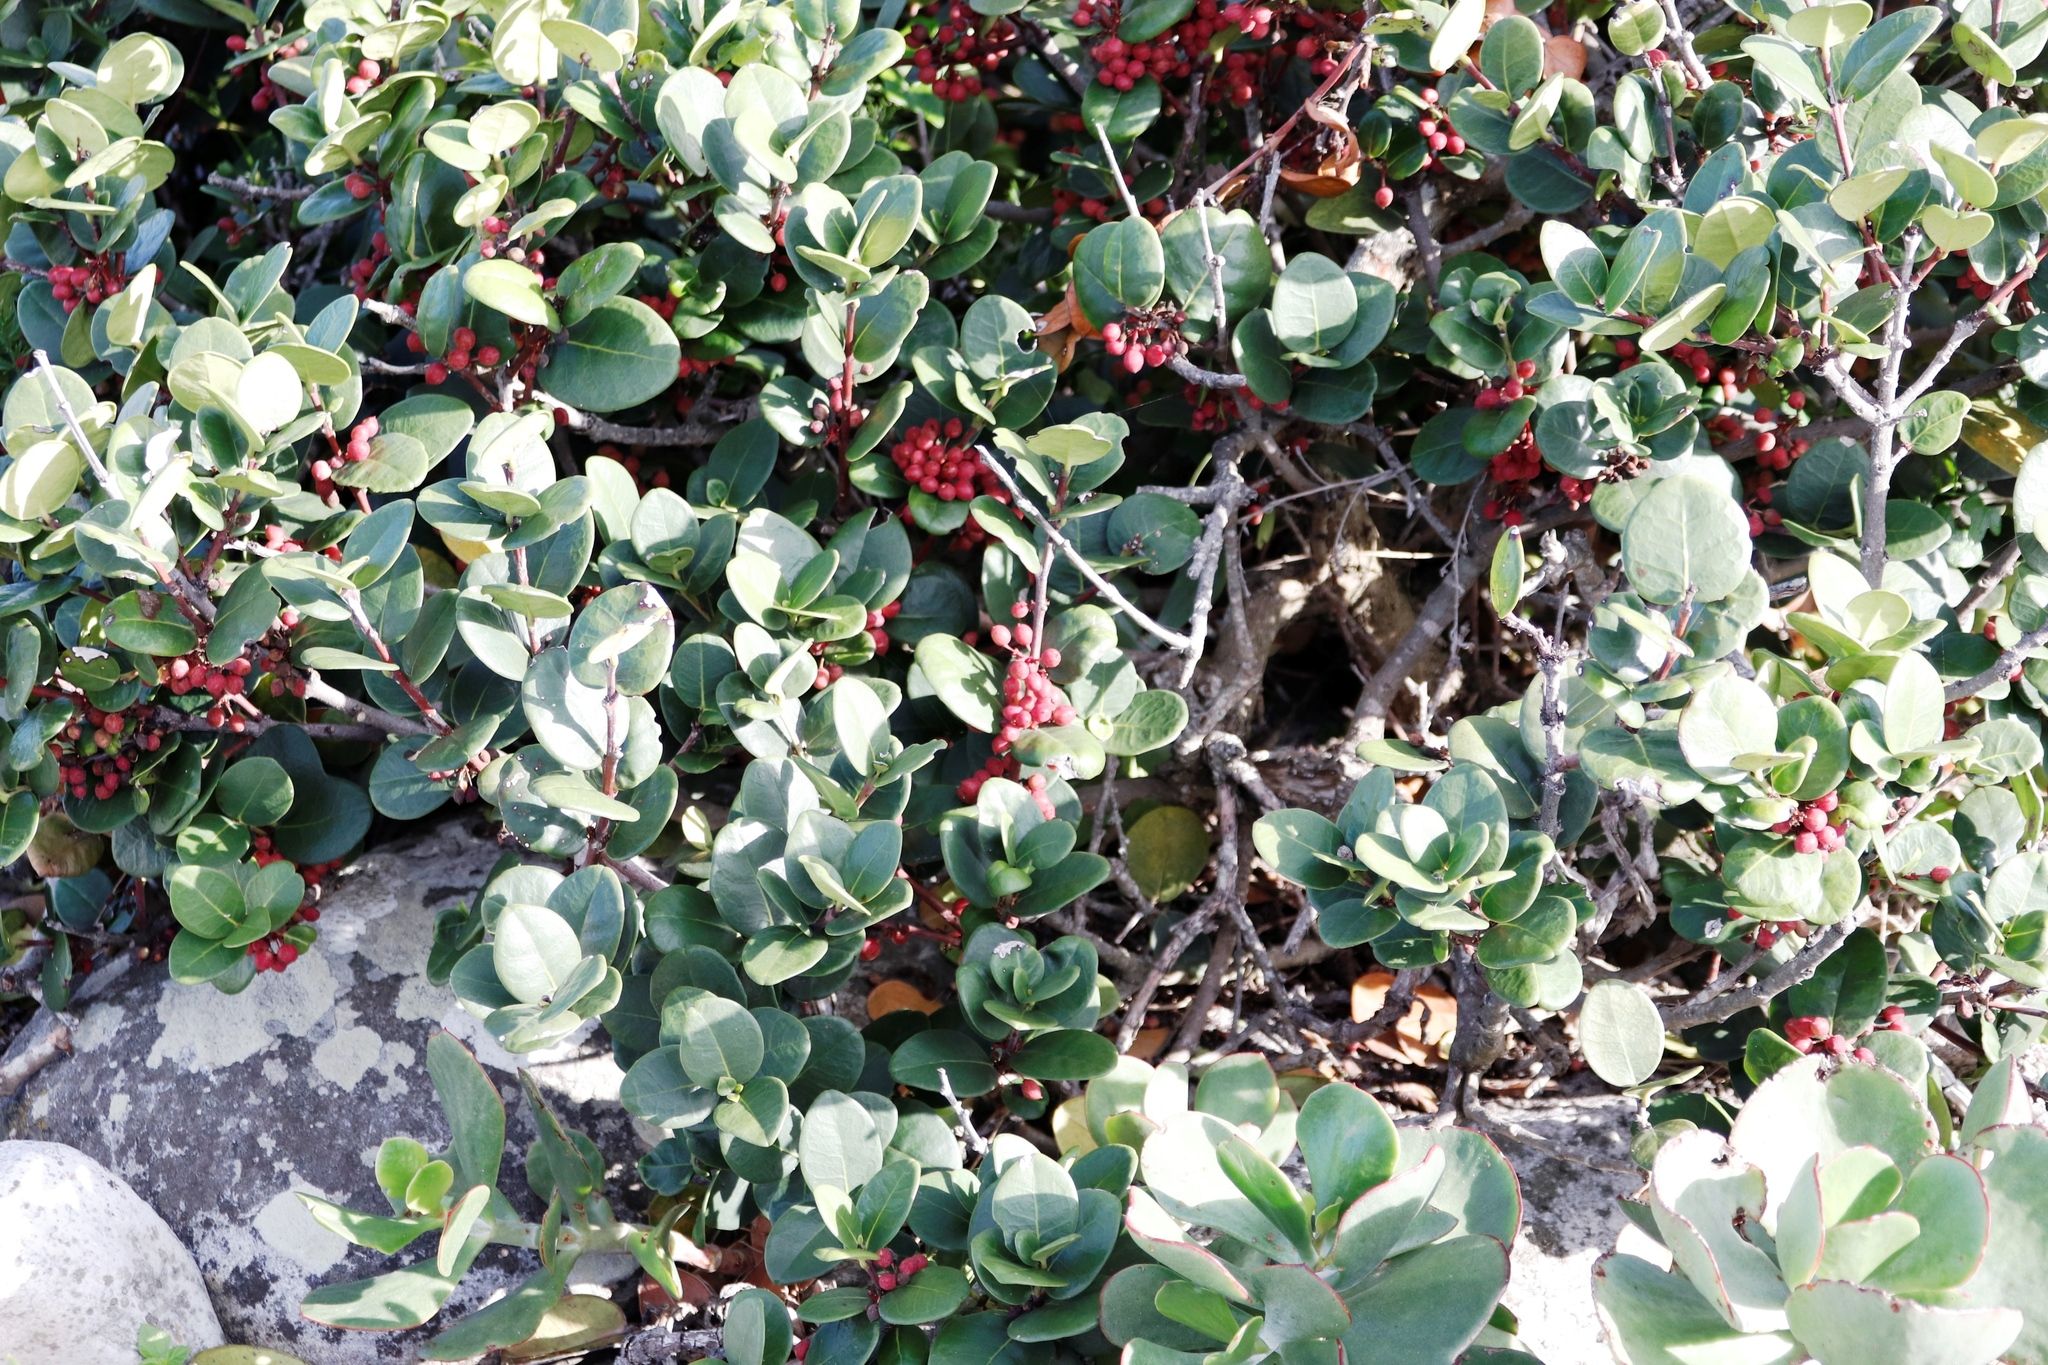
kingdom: Plantae
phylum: Tracheophyta
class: Magnoliopsida
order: Celastrales
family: Celastraceae
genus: Maurocenia
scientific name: Maurocenia frangula
